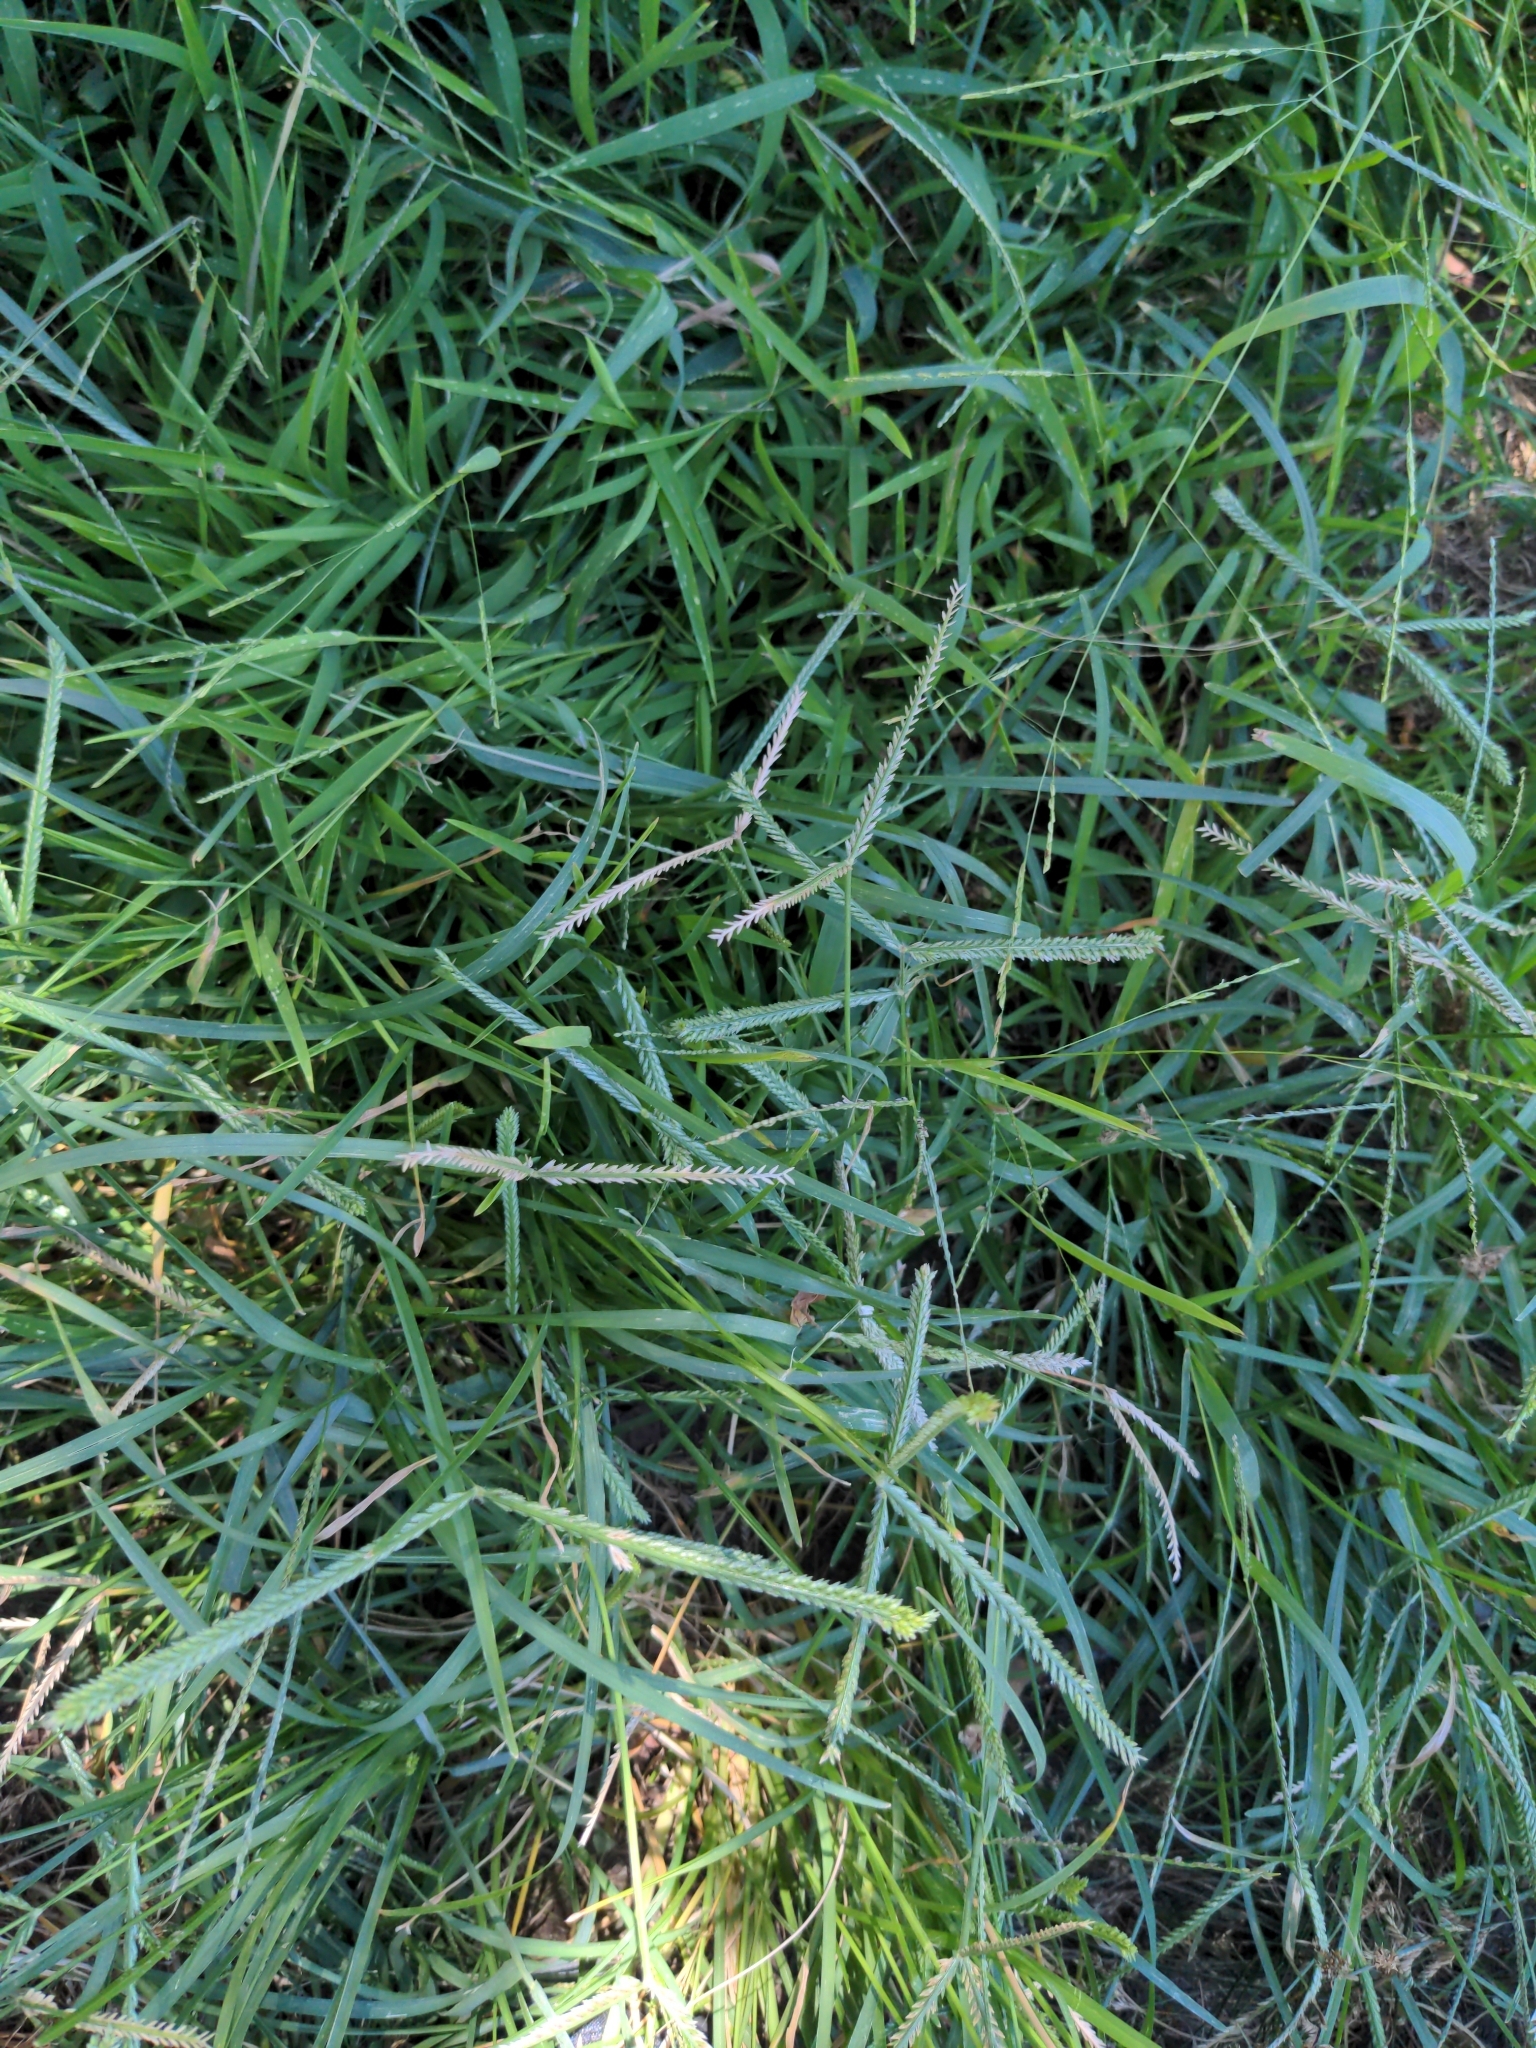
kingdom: Plantae
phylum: Tracheophyta
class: Liliopsida
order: Poales
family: Poaceae
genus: Eleusine
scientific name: Eleusine indica
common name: Yard-grass
